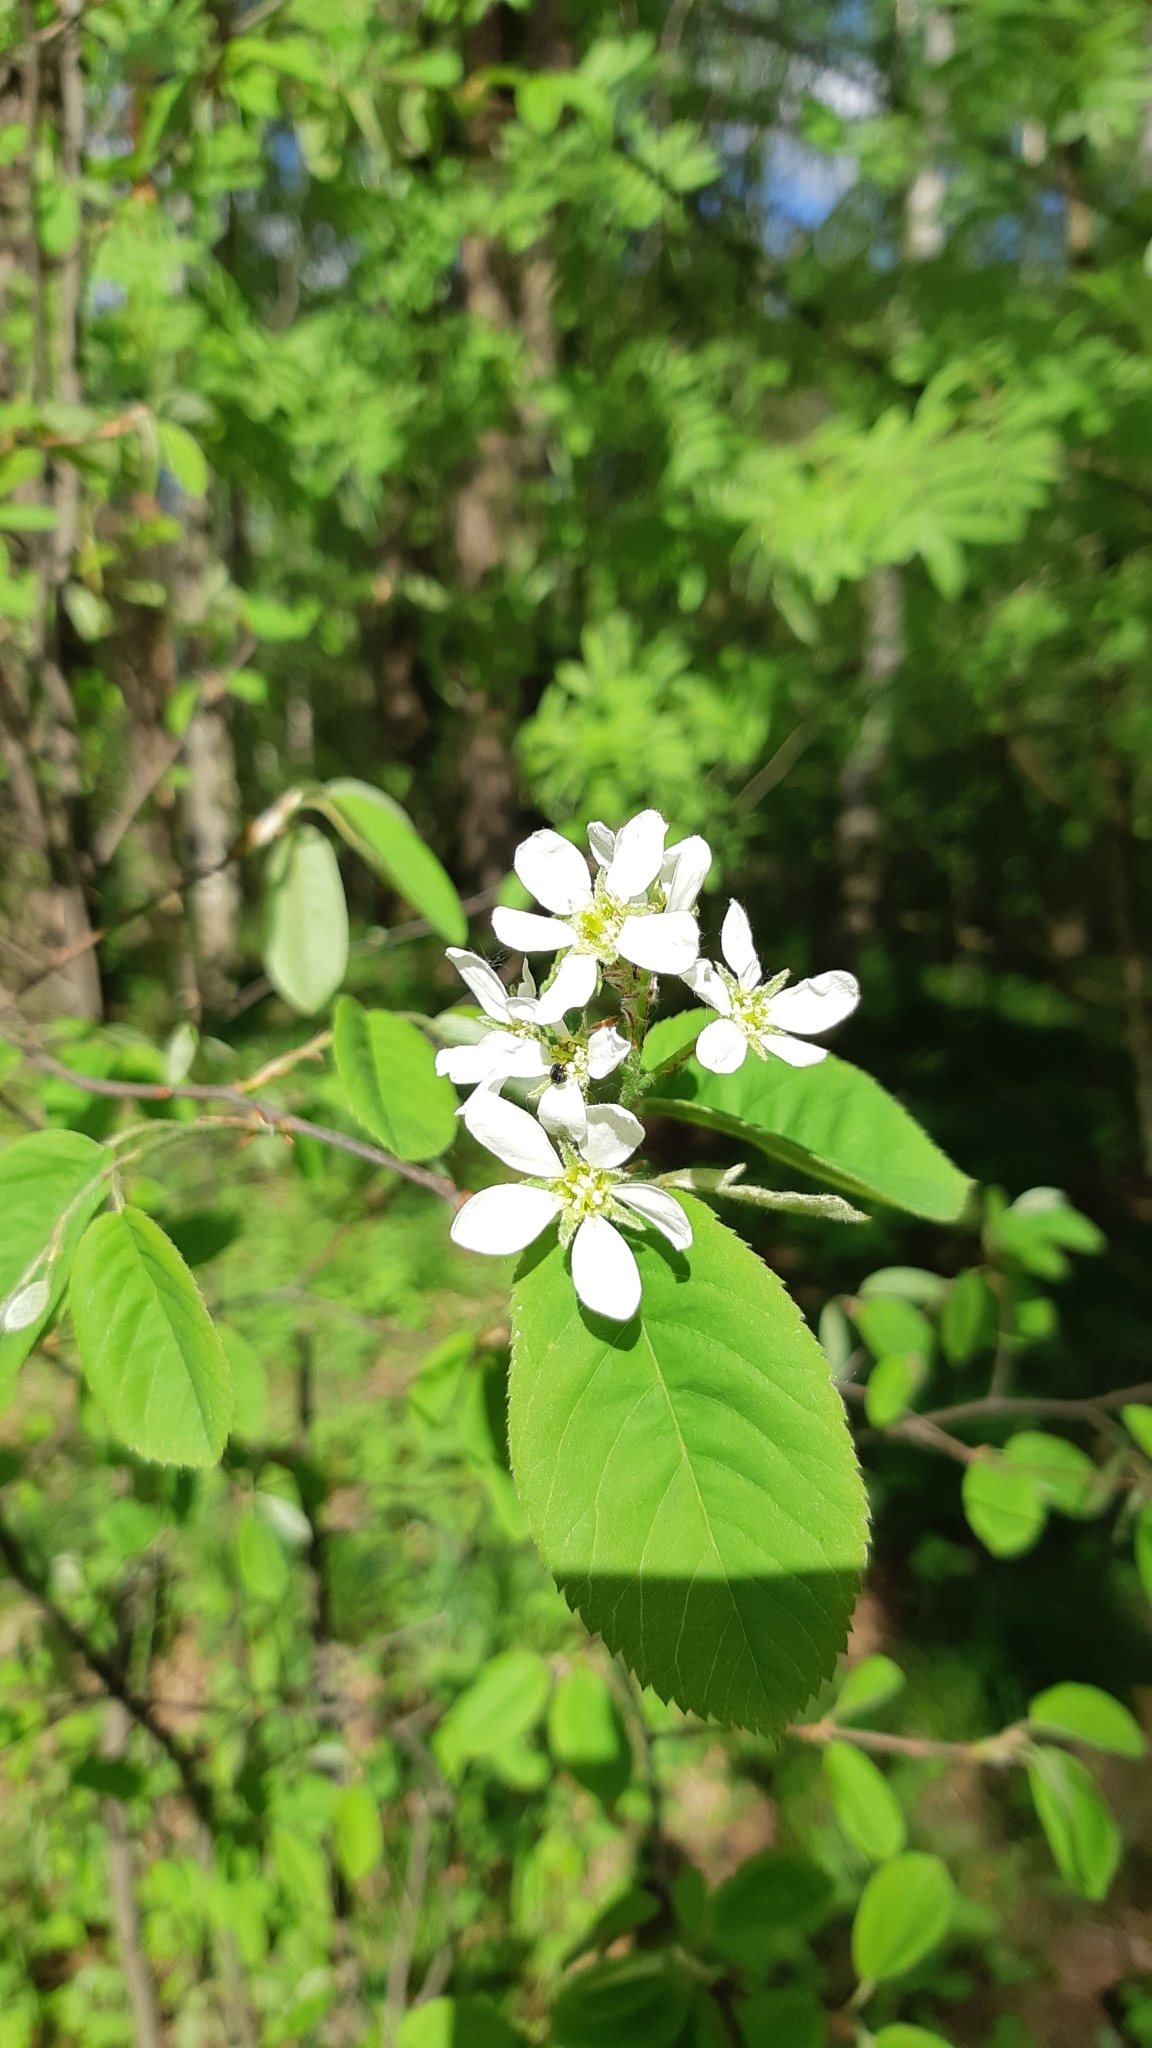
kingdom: Plantae
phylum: Tracheophyta
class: Magnoliopsida
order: Rosales
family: Rosaceae
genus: Amelanchier
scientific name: Amelanchier
